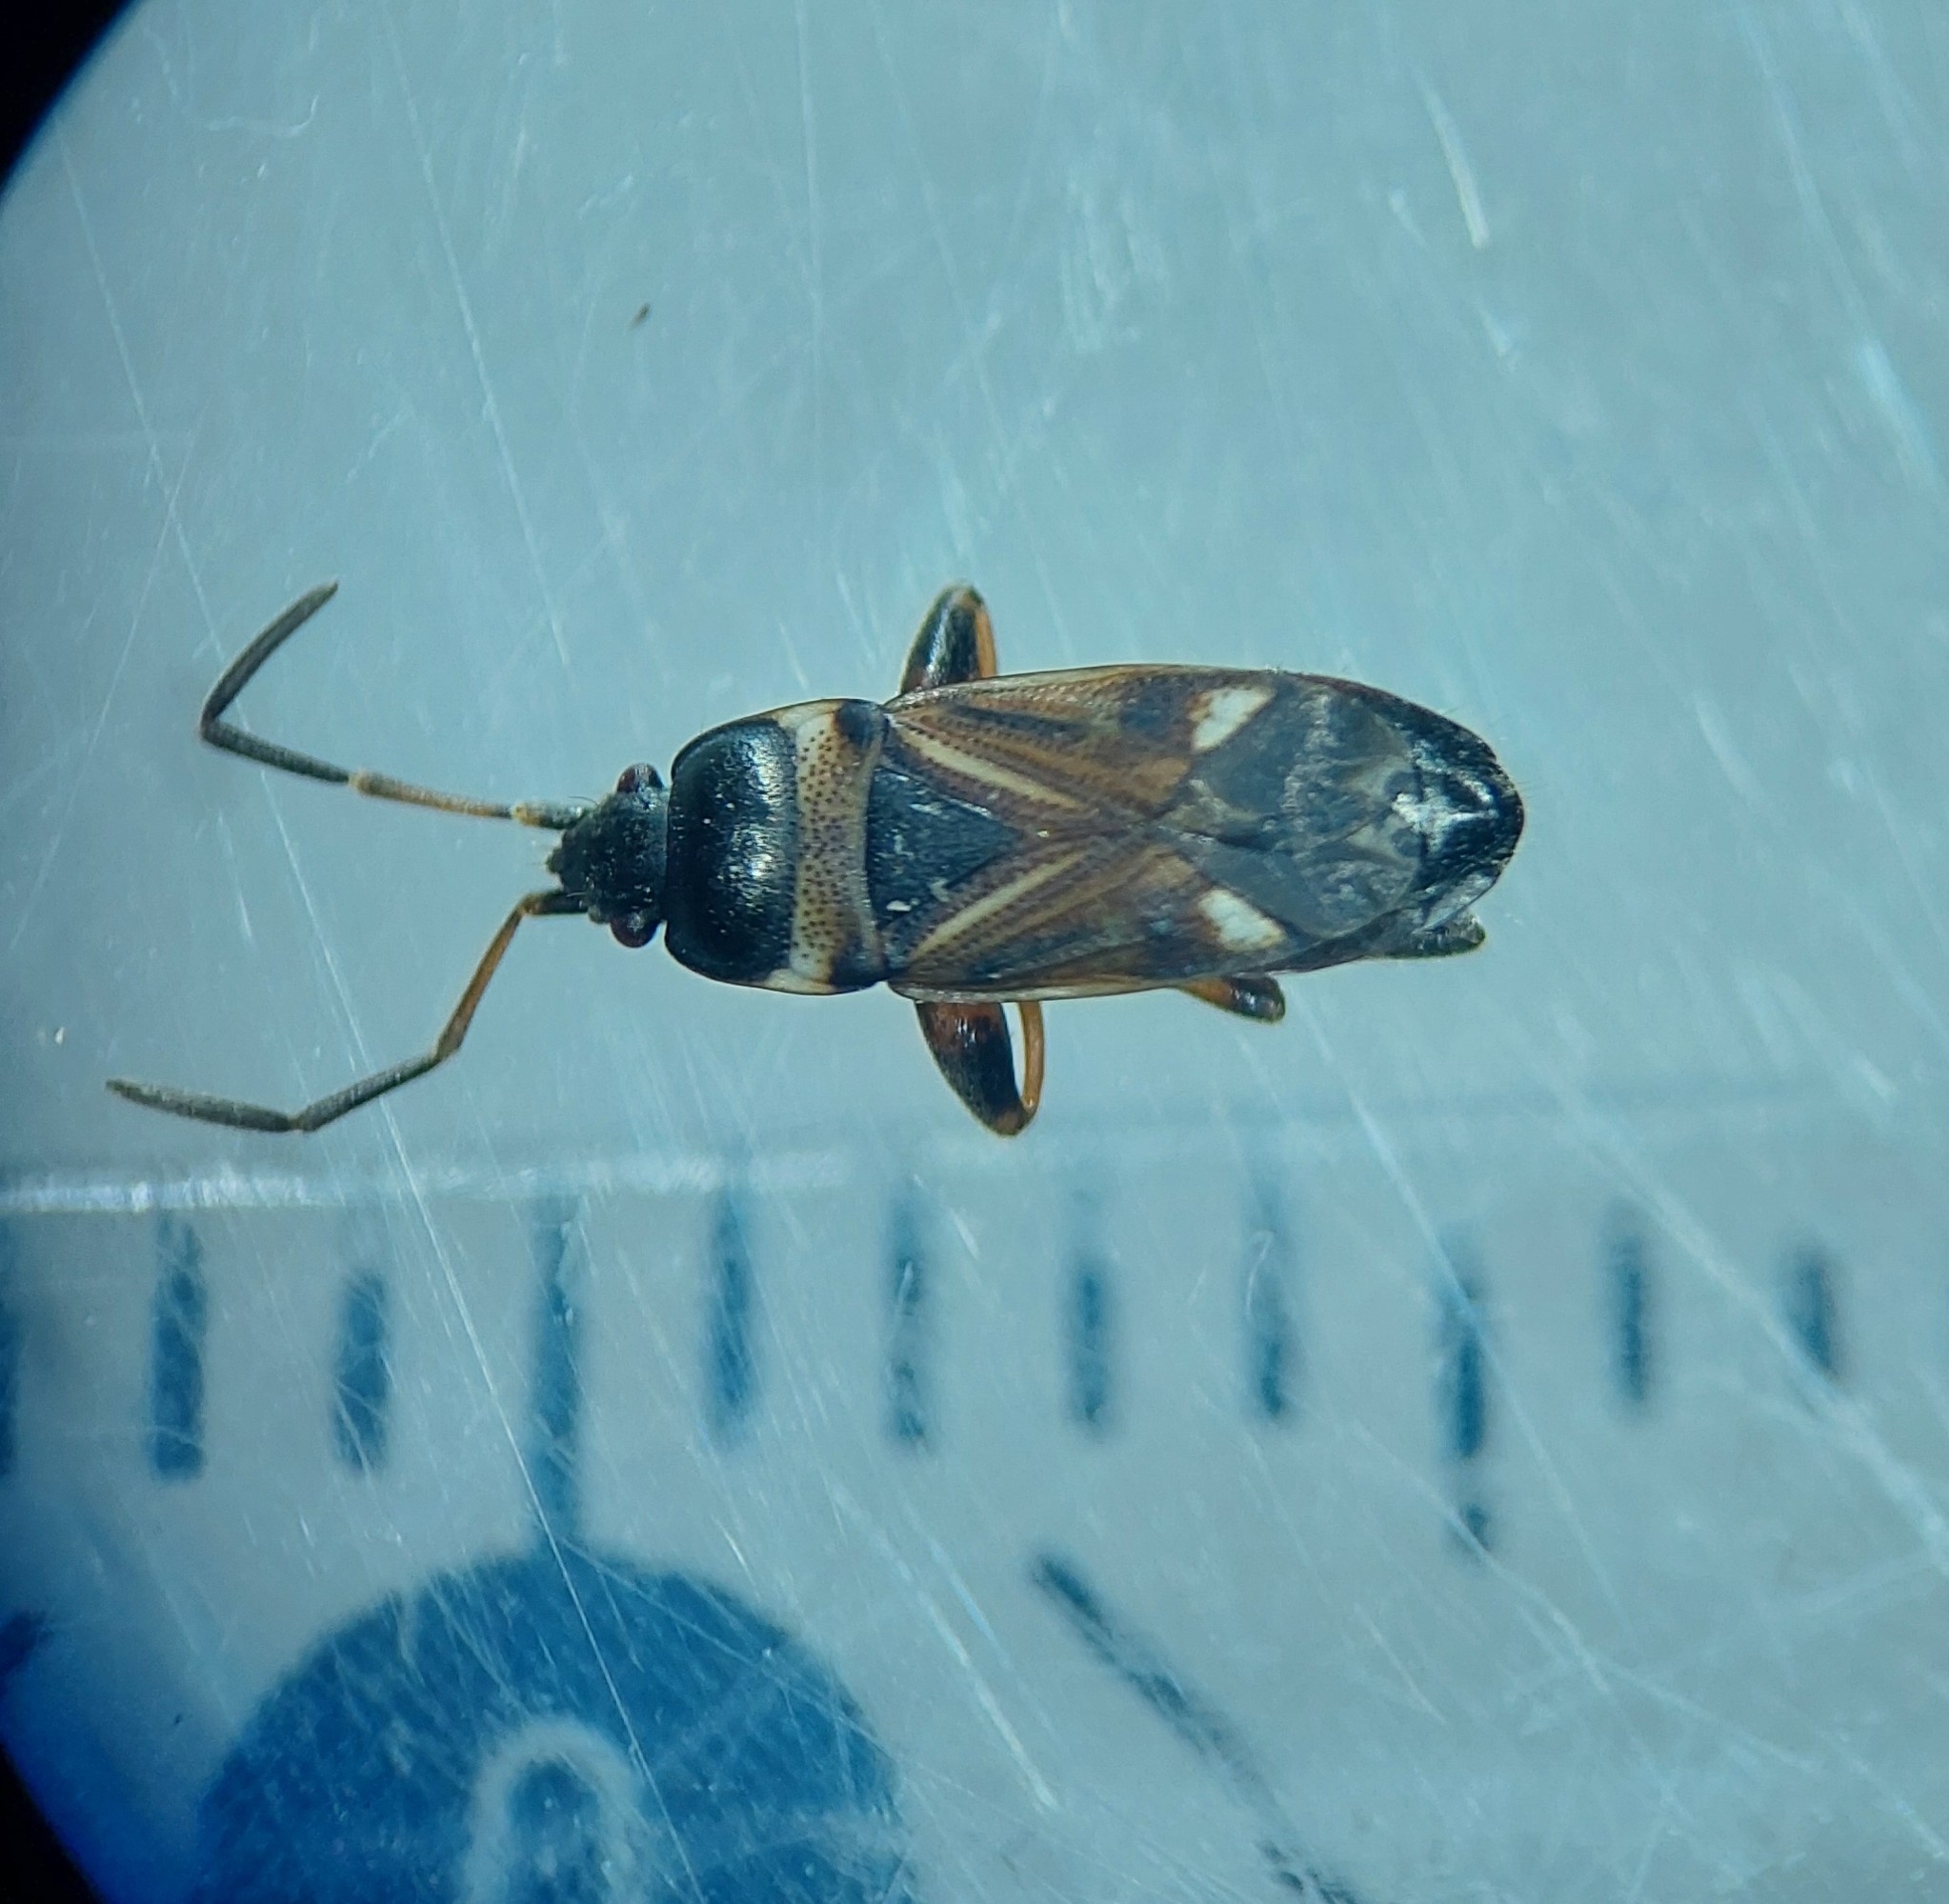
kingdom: Animalia
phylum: Arthropoda
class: Insecta
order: Hemiptera
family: Rhyparochromidae
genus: Raglius
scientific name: Raglius alboacuminatus
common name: Dirt-colored seed bug
